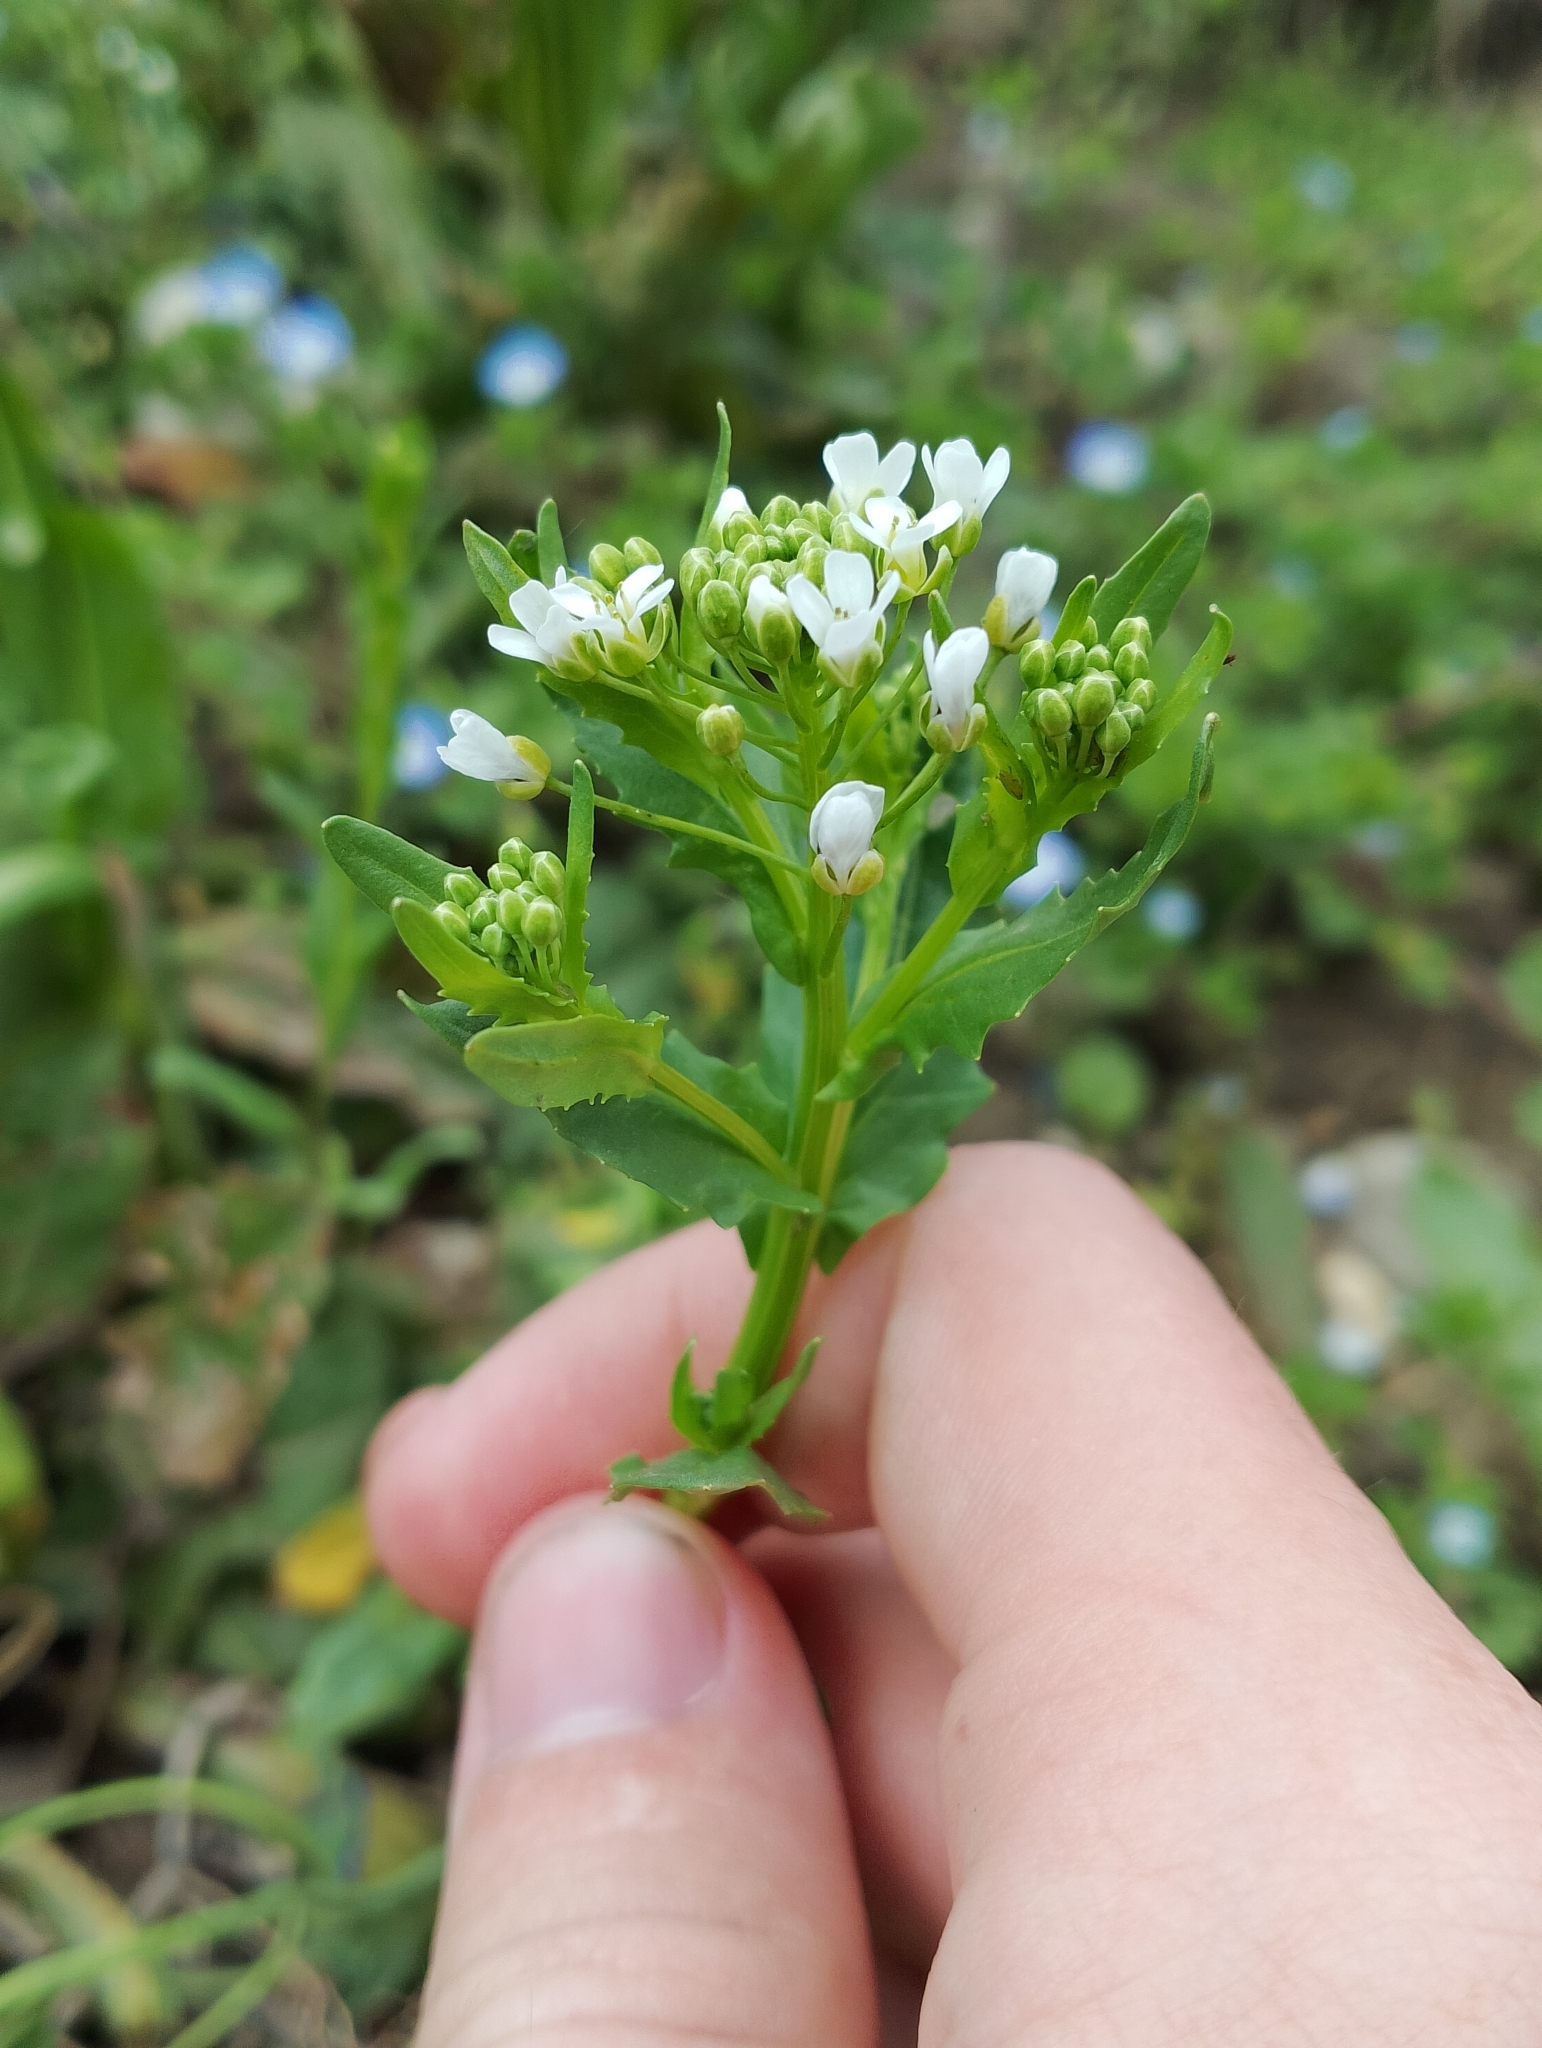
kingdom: Plantae
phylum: Tracheophyta
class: Magnoliopsida
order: Brassicales
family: Brassicaceae
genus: Thlaspi
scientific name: Thlaspi arvense
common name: Field pennycress
